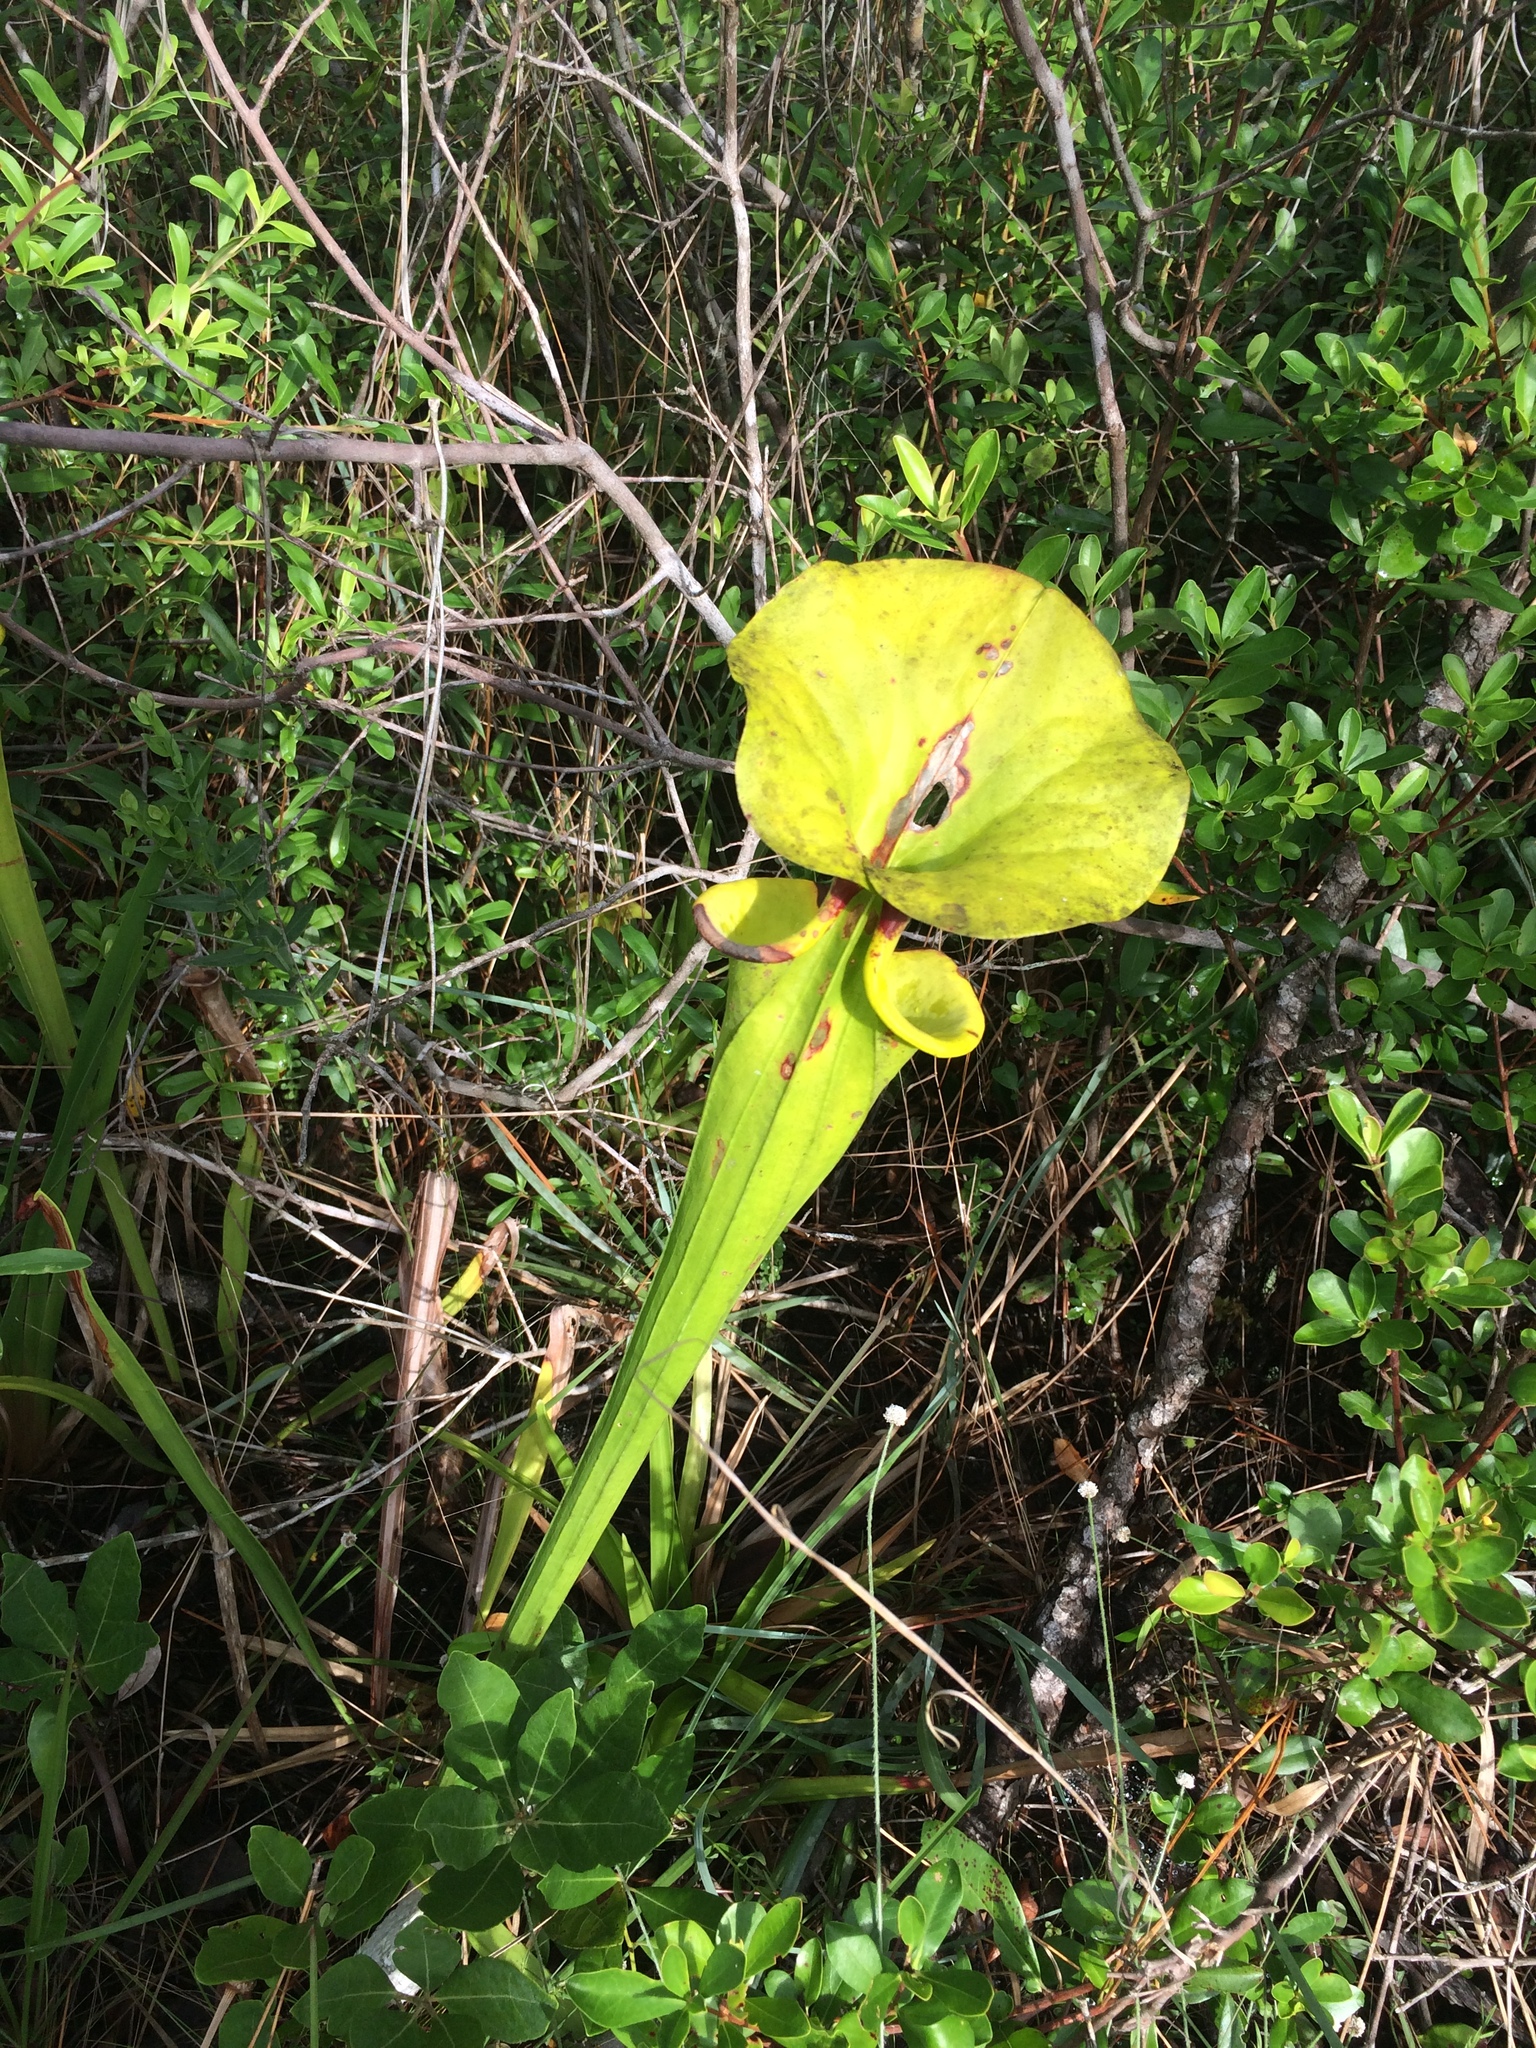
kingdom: Plantae
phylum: Tracheophyta
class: Magnoliopsida
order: Ericales
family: Sarraceniaceae
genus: Sarracenia
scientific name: Sarracenia flava
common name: Trumpets
